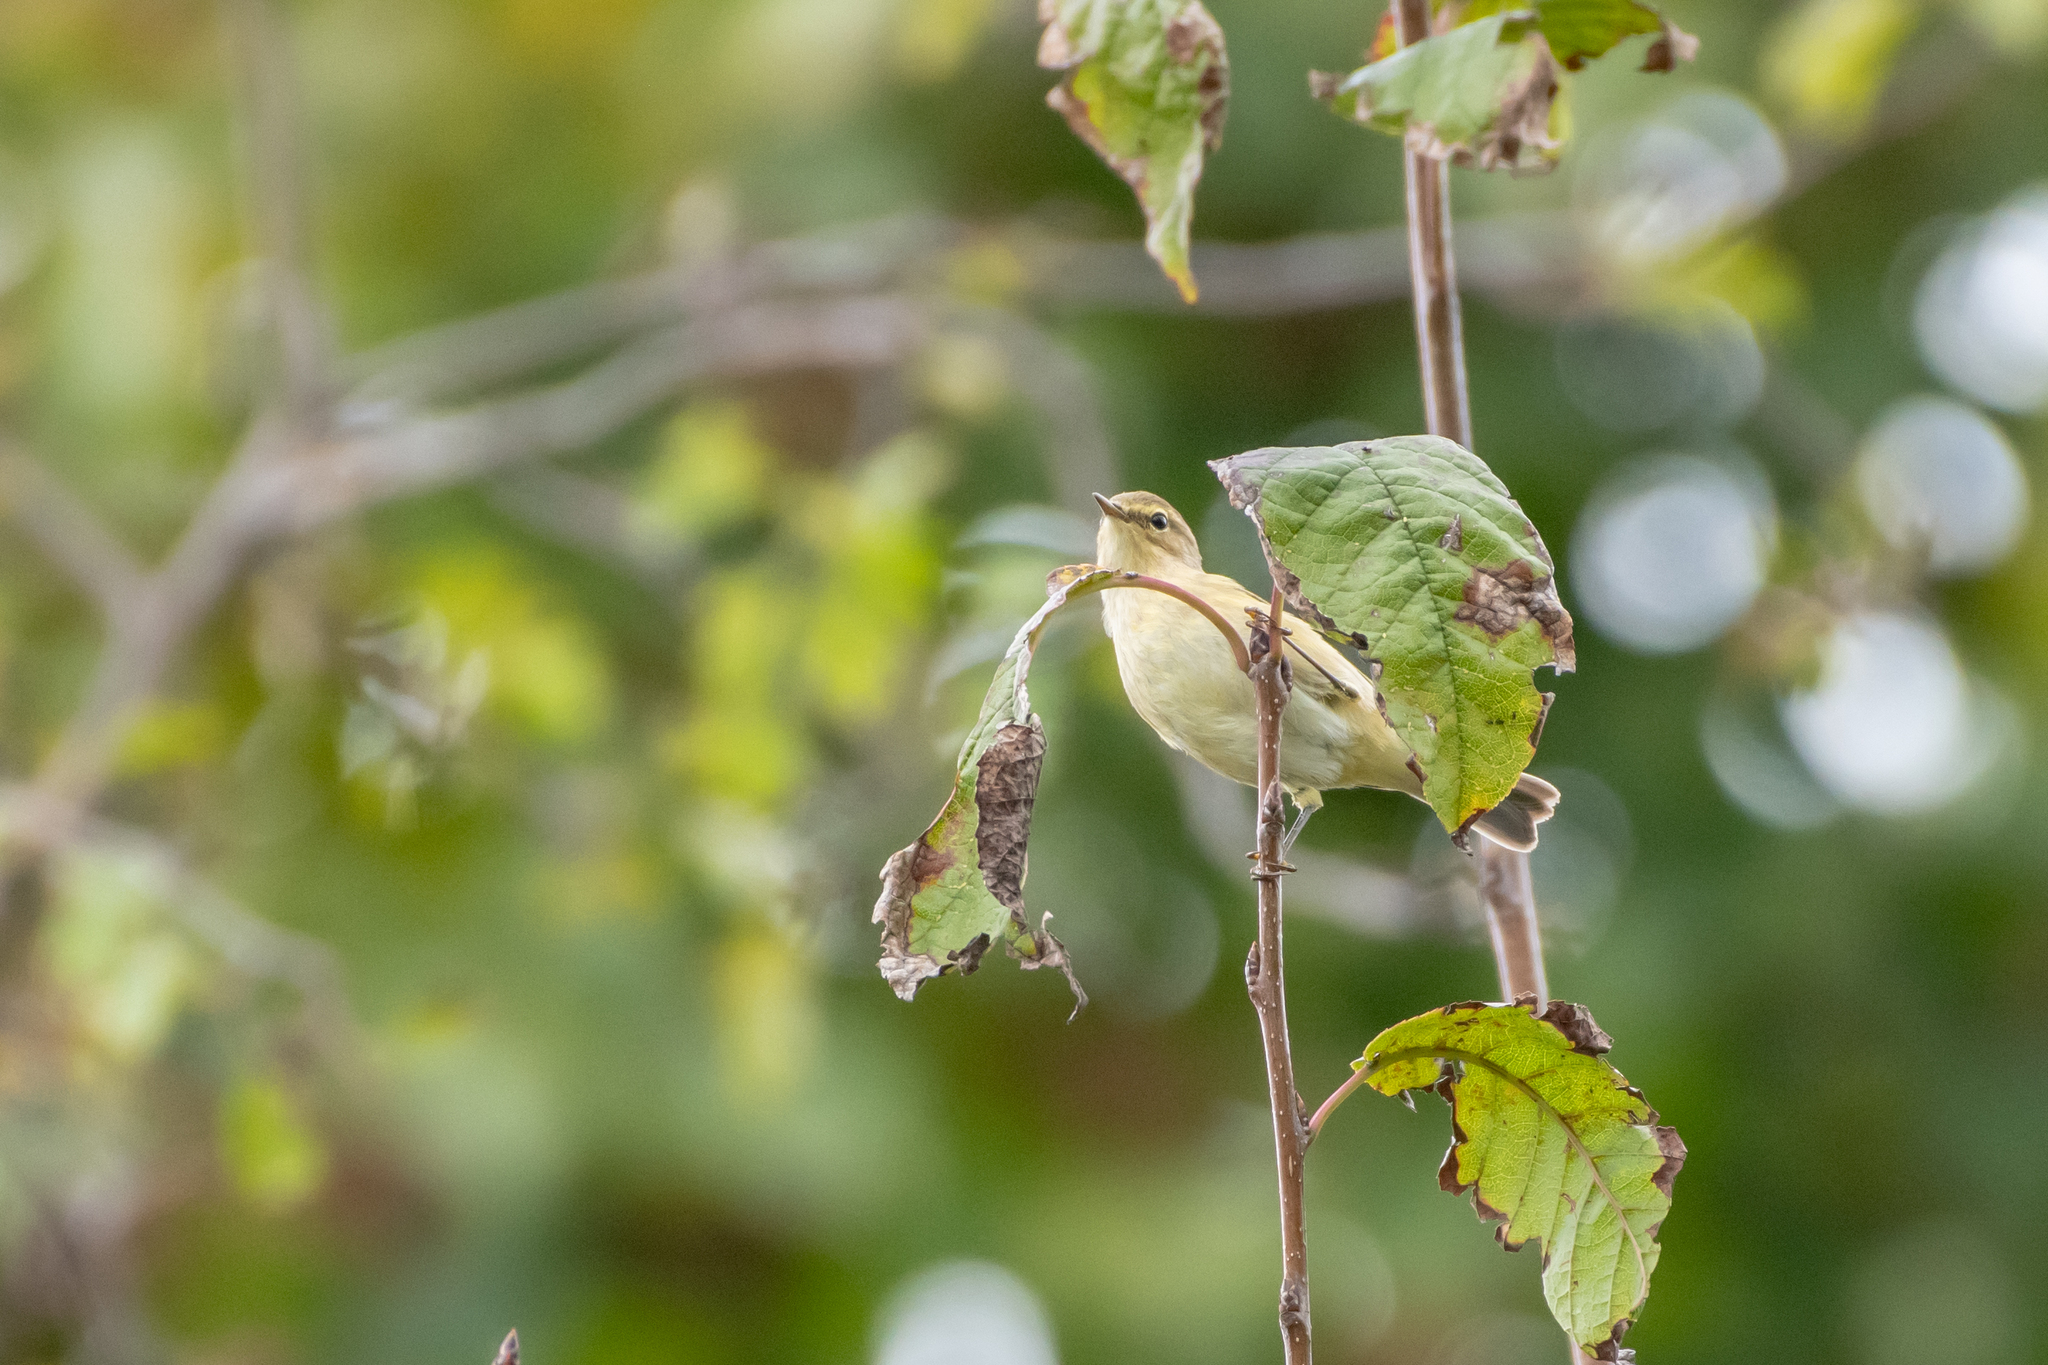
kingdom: Animalia
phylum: Chordata
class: Aves
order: Passeriformes
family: Phylloscopidae
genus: Phylloscopus
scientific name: Phylloscopus collybita
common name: Common chiffchaff
